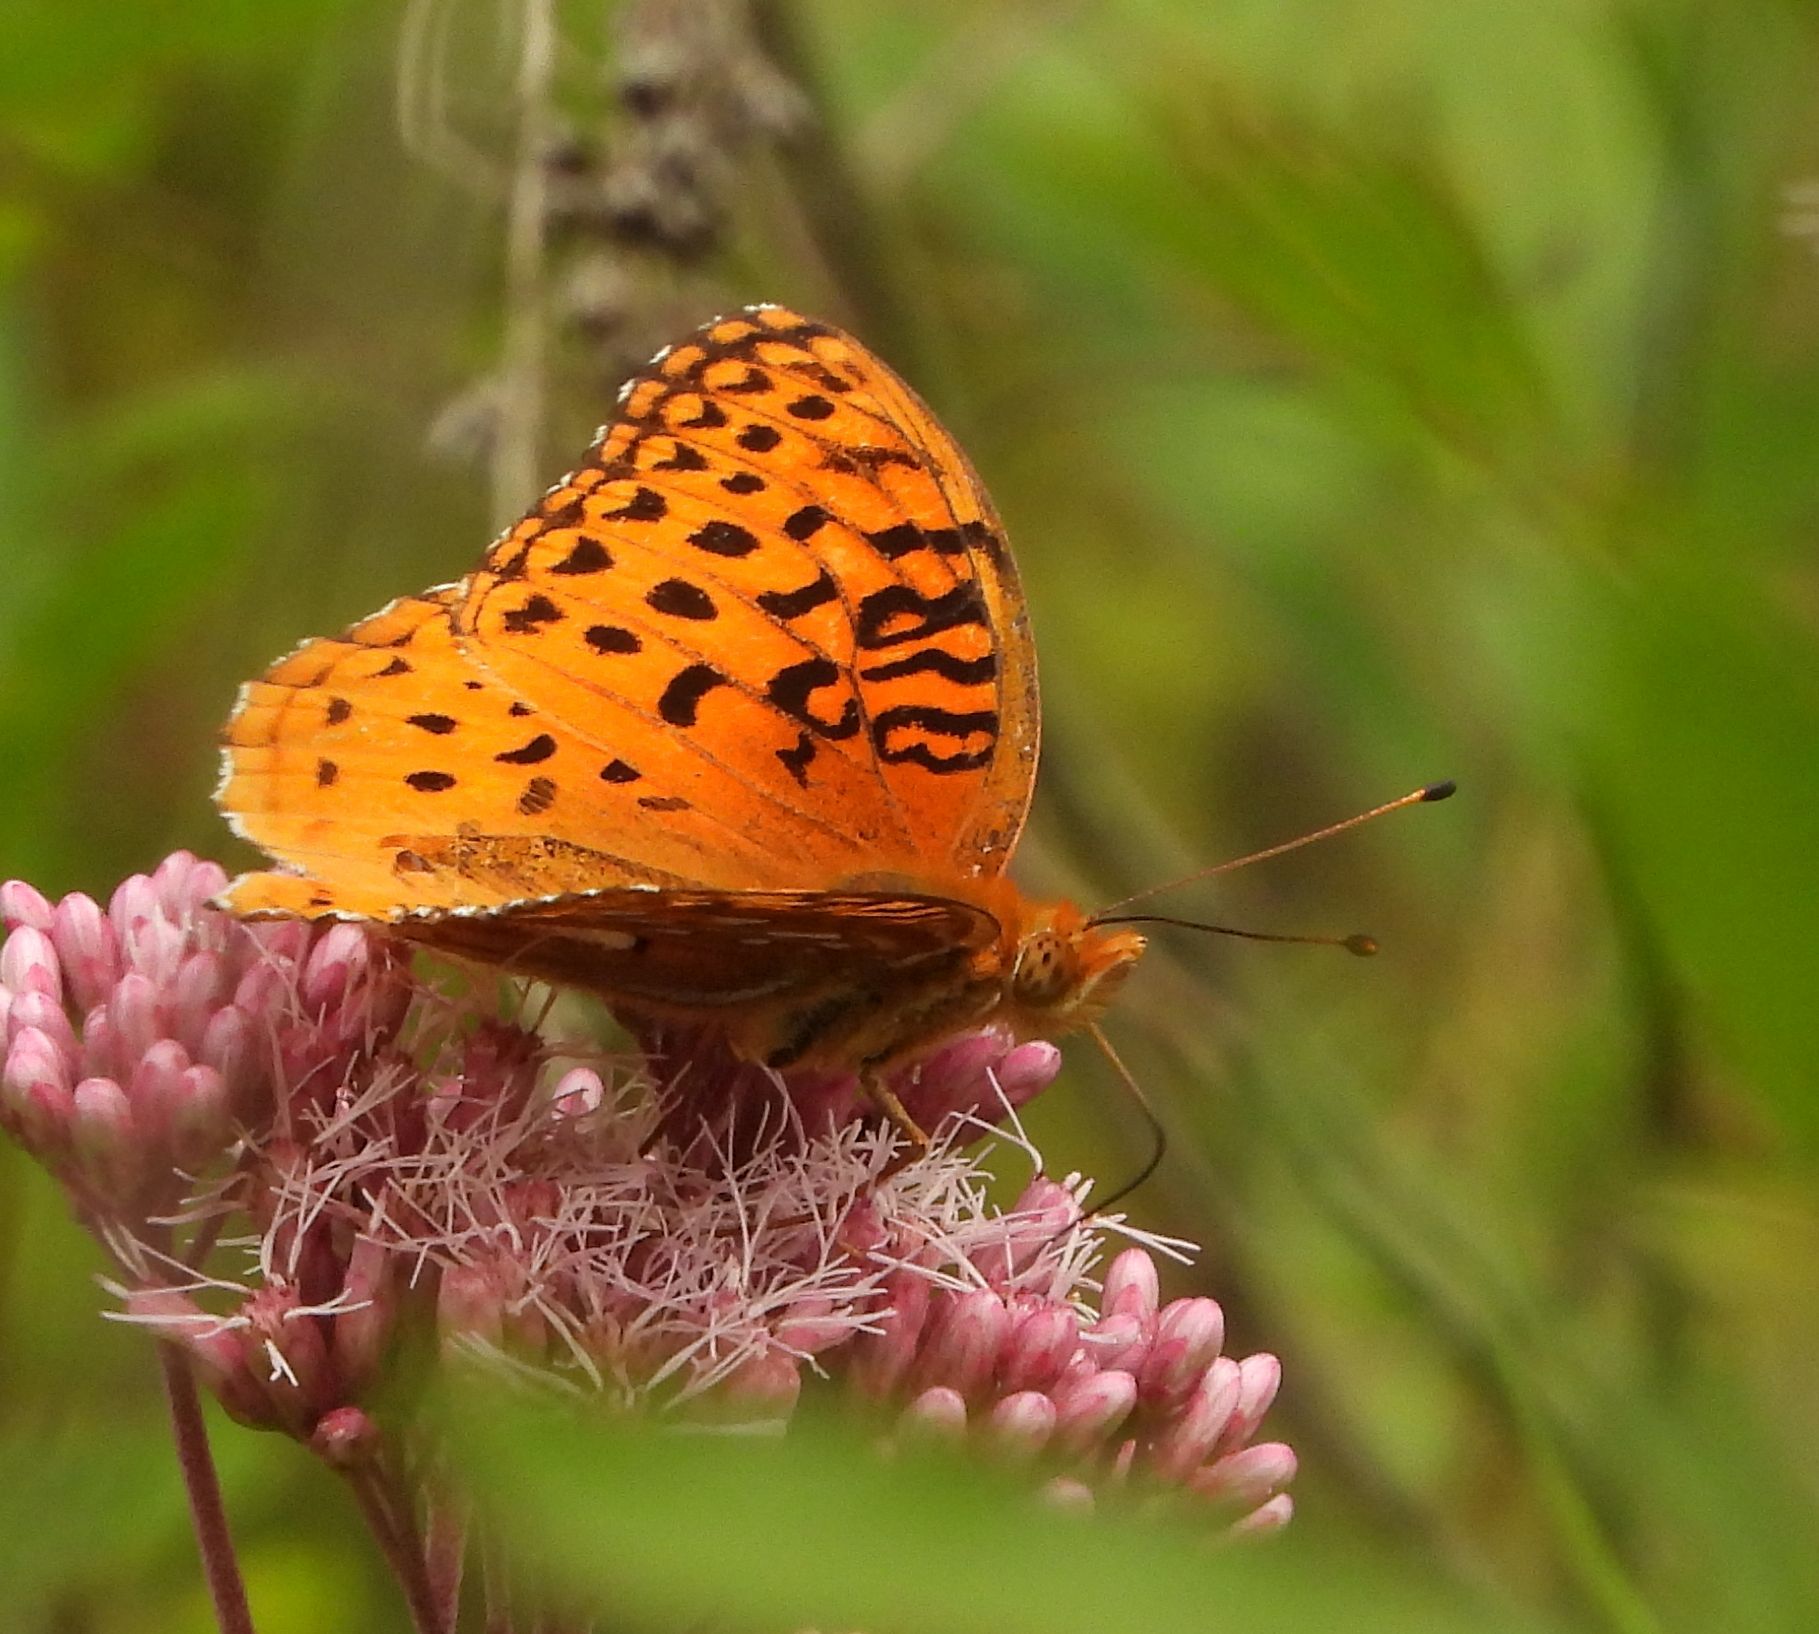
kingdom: Animalia
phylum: Arthropoda
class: Insecta
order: Lepidoptera
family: Nymphalidae
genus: Speyeria
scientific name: Speyeria aphrodite
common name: Aphrodite friitllary
